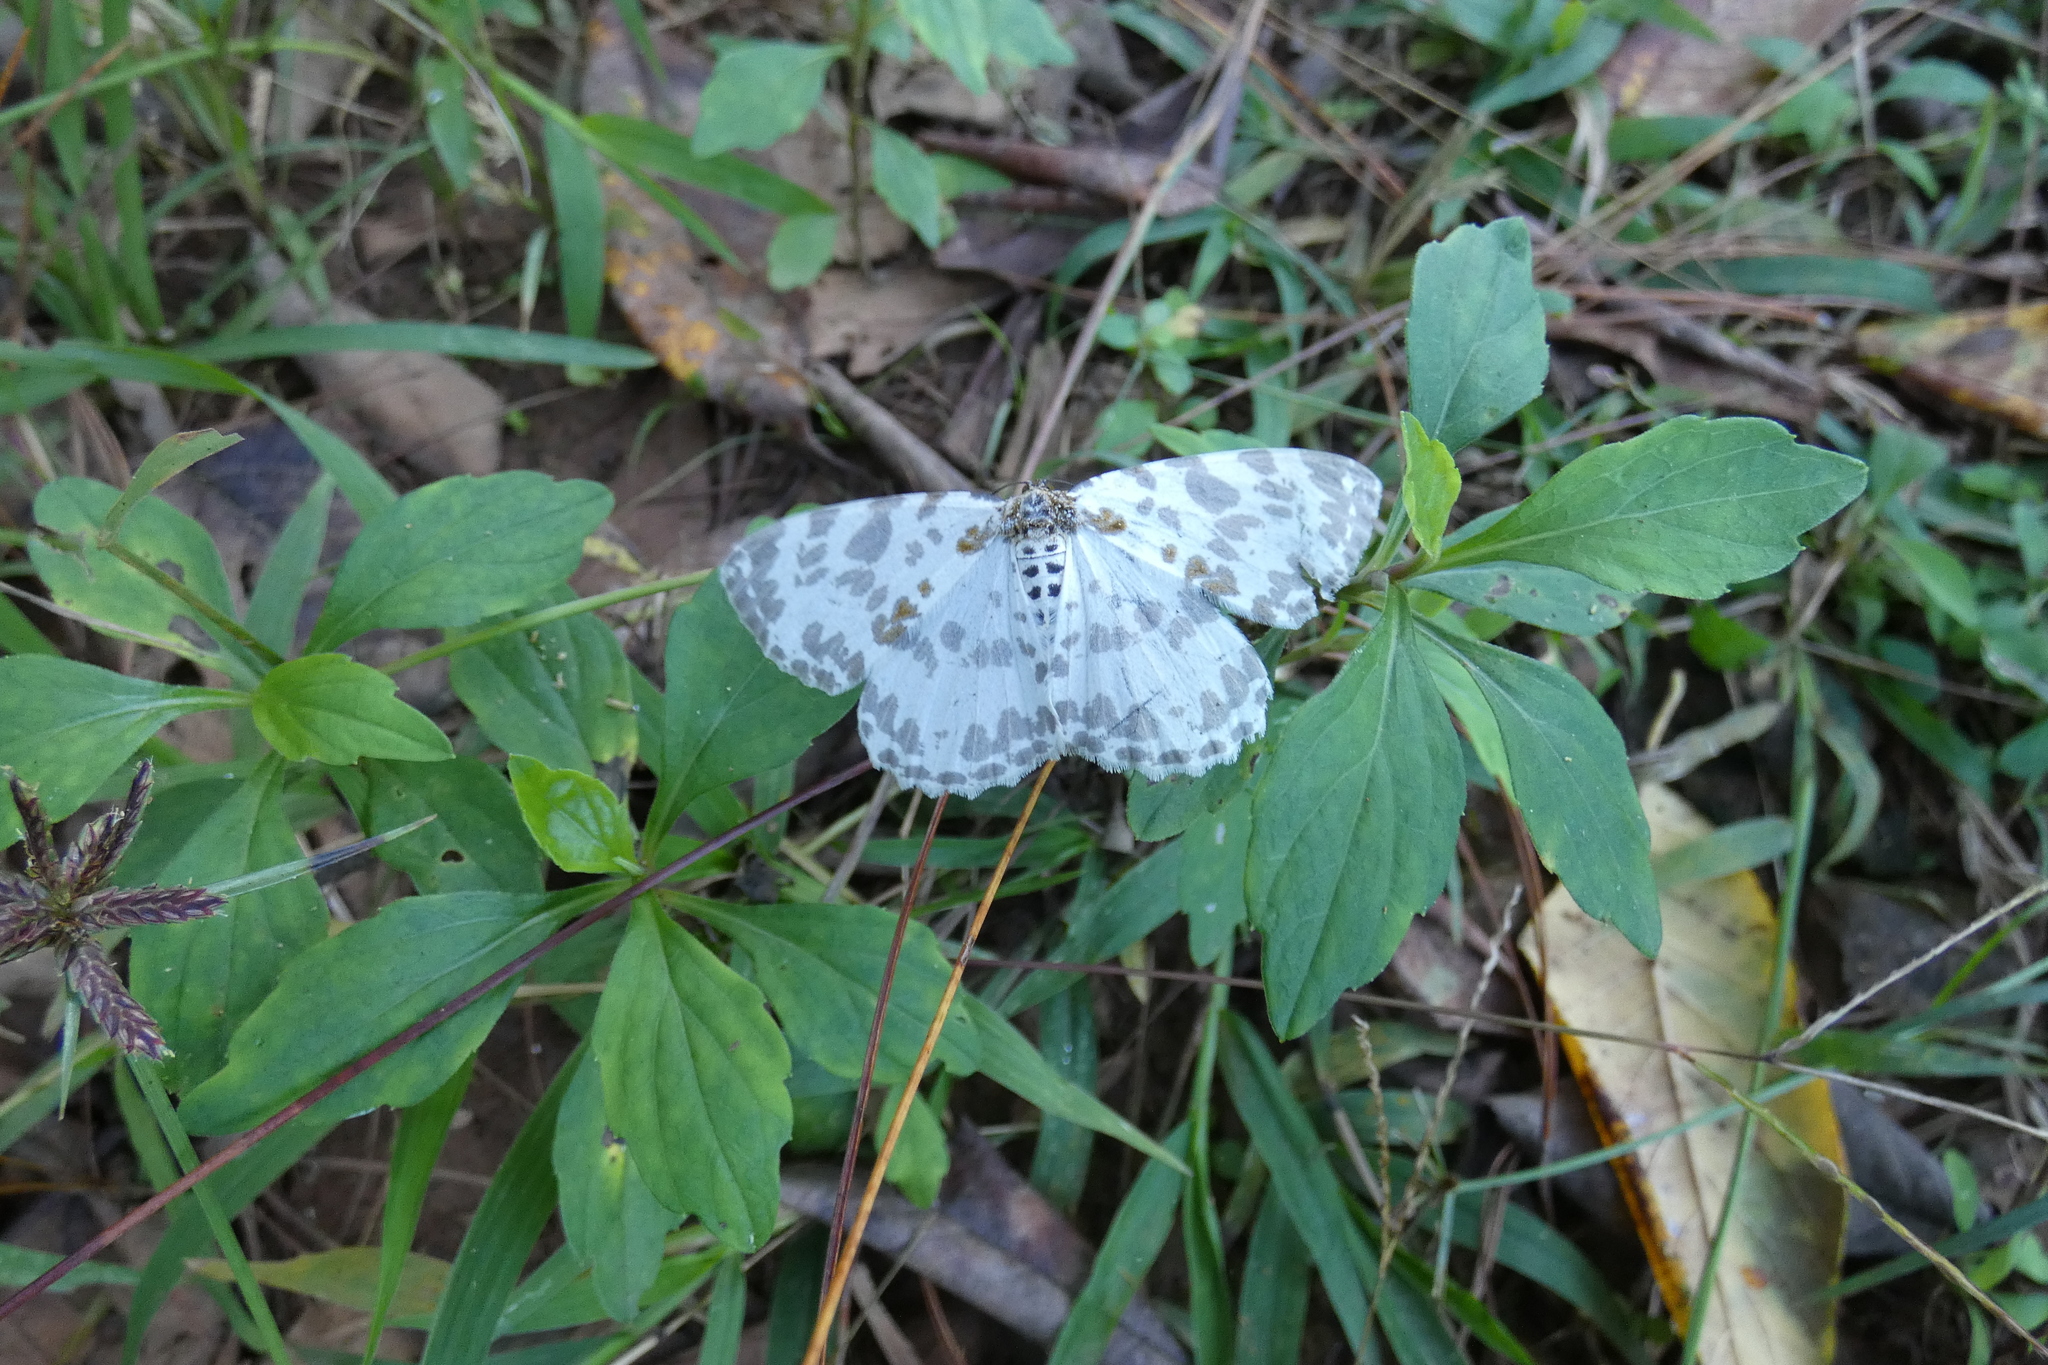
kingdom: Animalia
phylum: Arthropoda
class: Insecta
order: Lepidoptera
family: Geometridae
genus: Hypomecis
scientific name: Hypomecis pardaria
